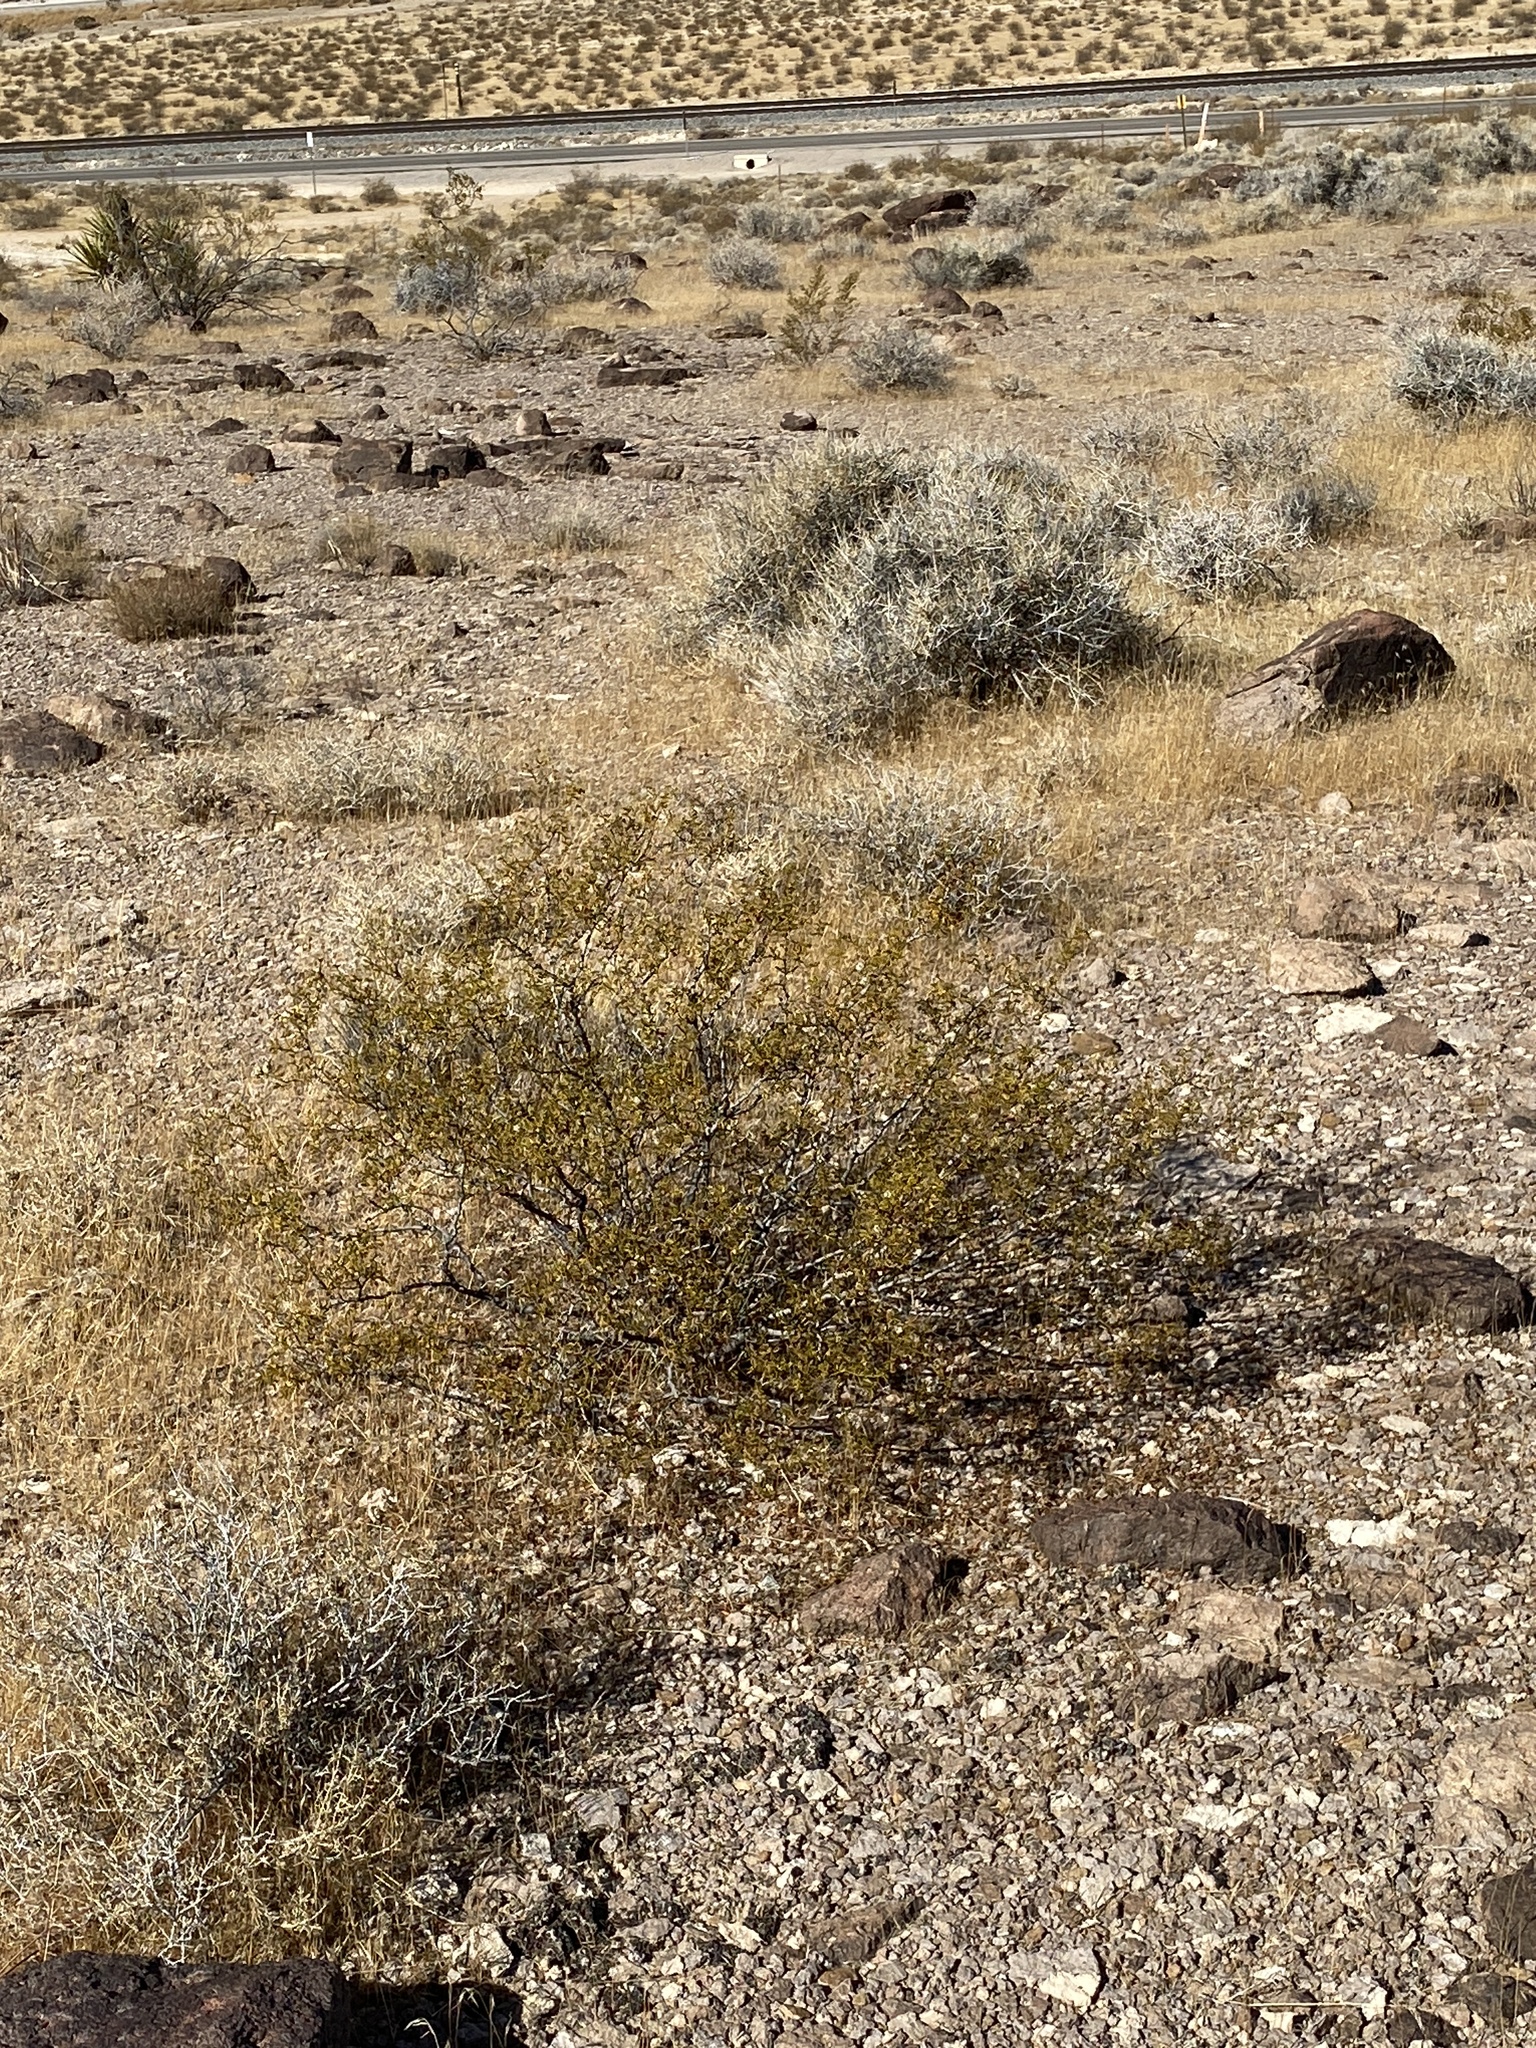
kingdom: Plantae
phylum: Tracheophyta
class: Magnoliopsida
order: Zygophyllales
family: Zygophyllaceae
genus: Larrea
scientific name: Larrea tridentata
